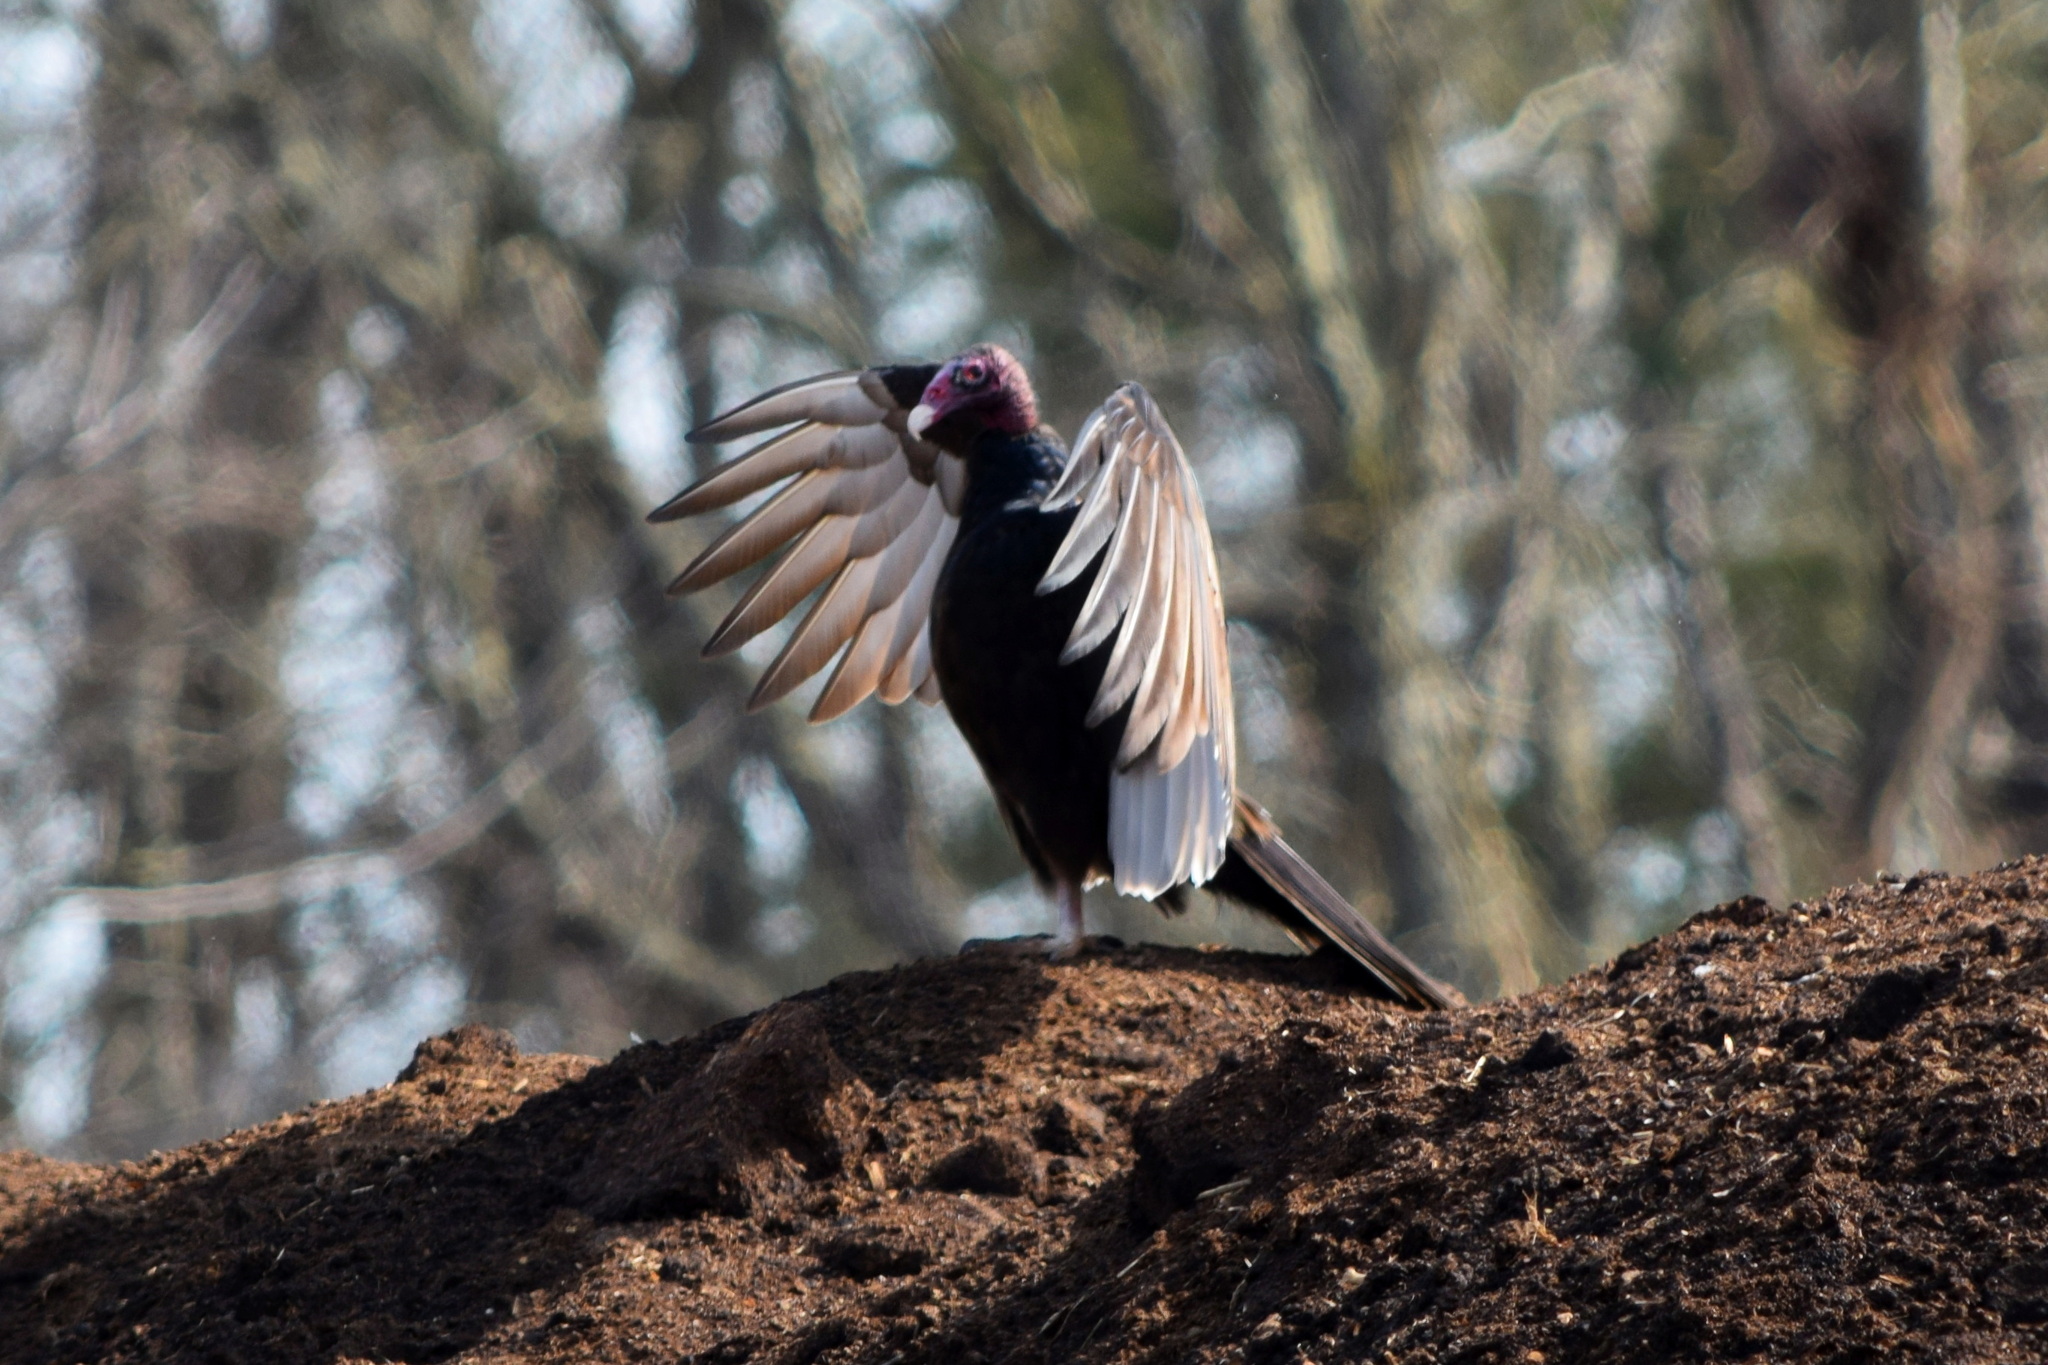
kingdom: Animalia
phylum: Chordata
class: Aves
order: Accipitriformes
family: Cathartidae
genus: Cathartes
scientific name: Cathartes aura
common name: Turkey vulture
